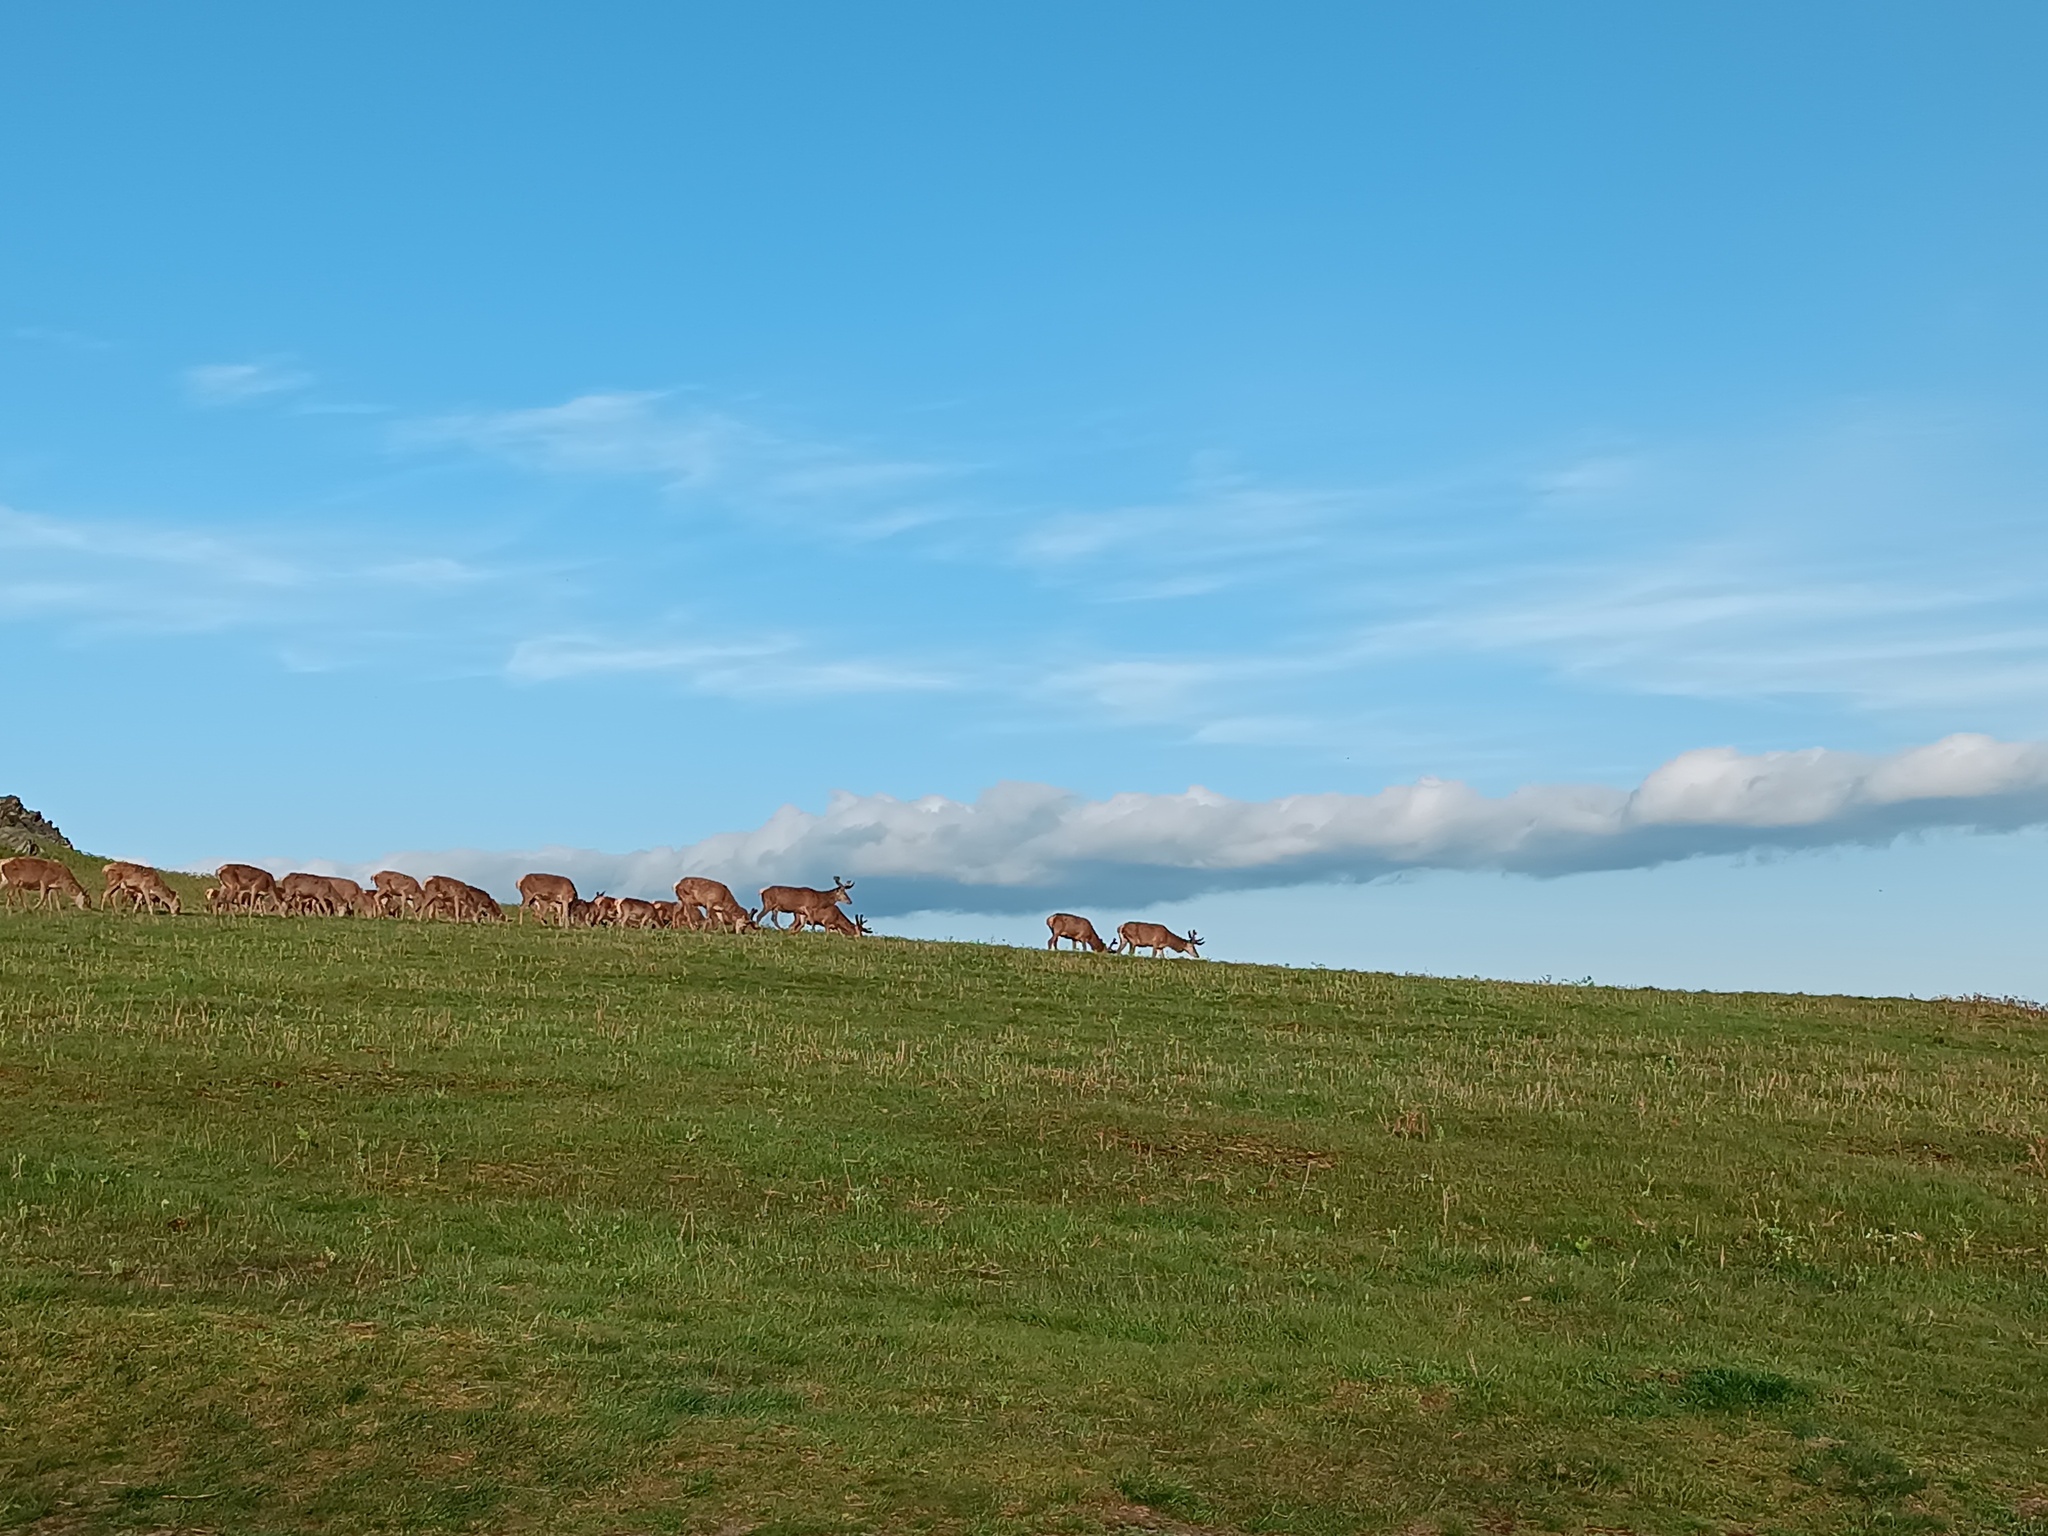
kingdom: Animalia
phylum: Chordata
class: Mammalia
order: Artiodactyla
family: Cervidae
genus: Cervus
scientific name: Cervus elaphus
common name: Red deer
